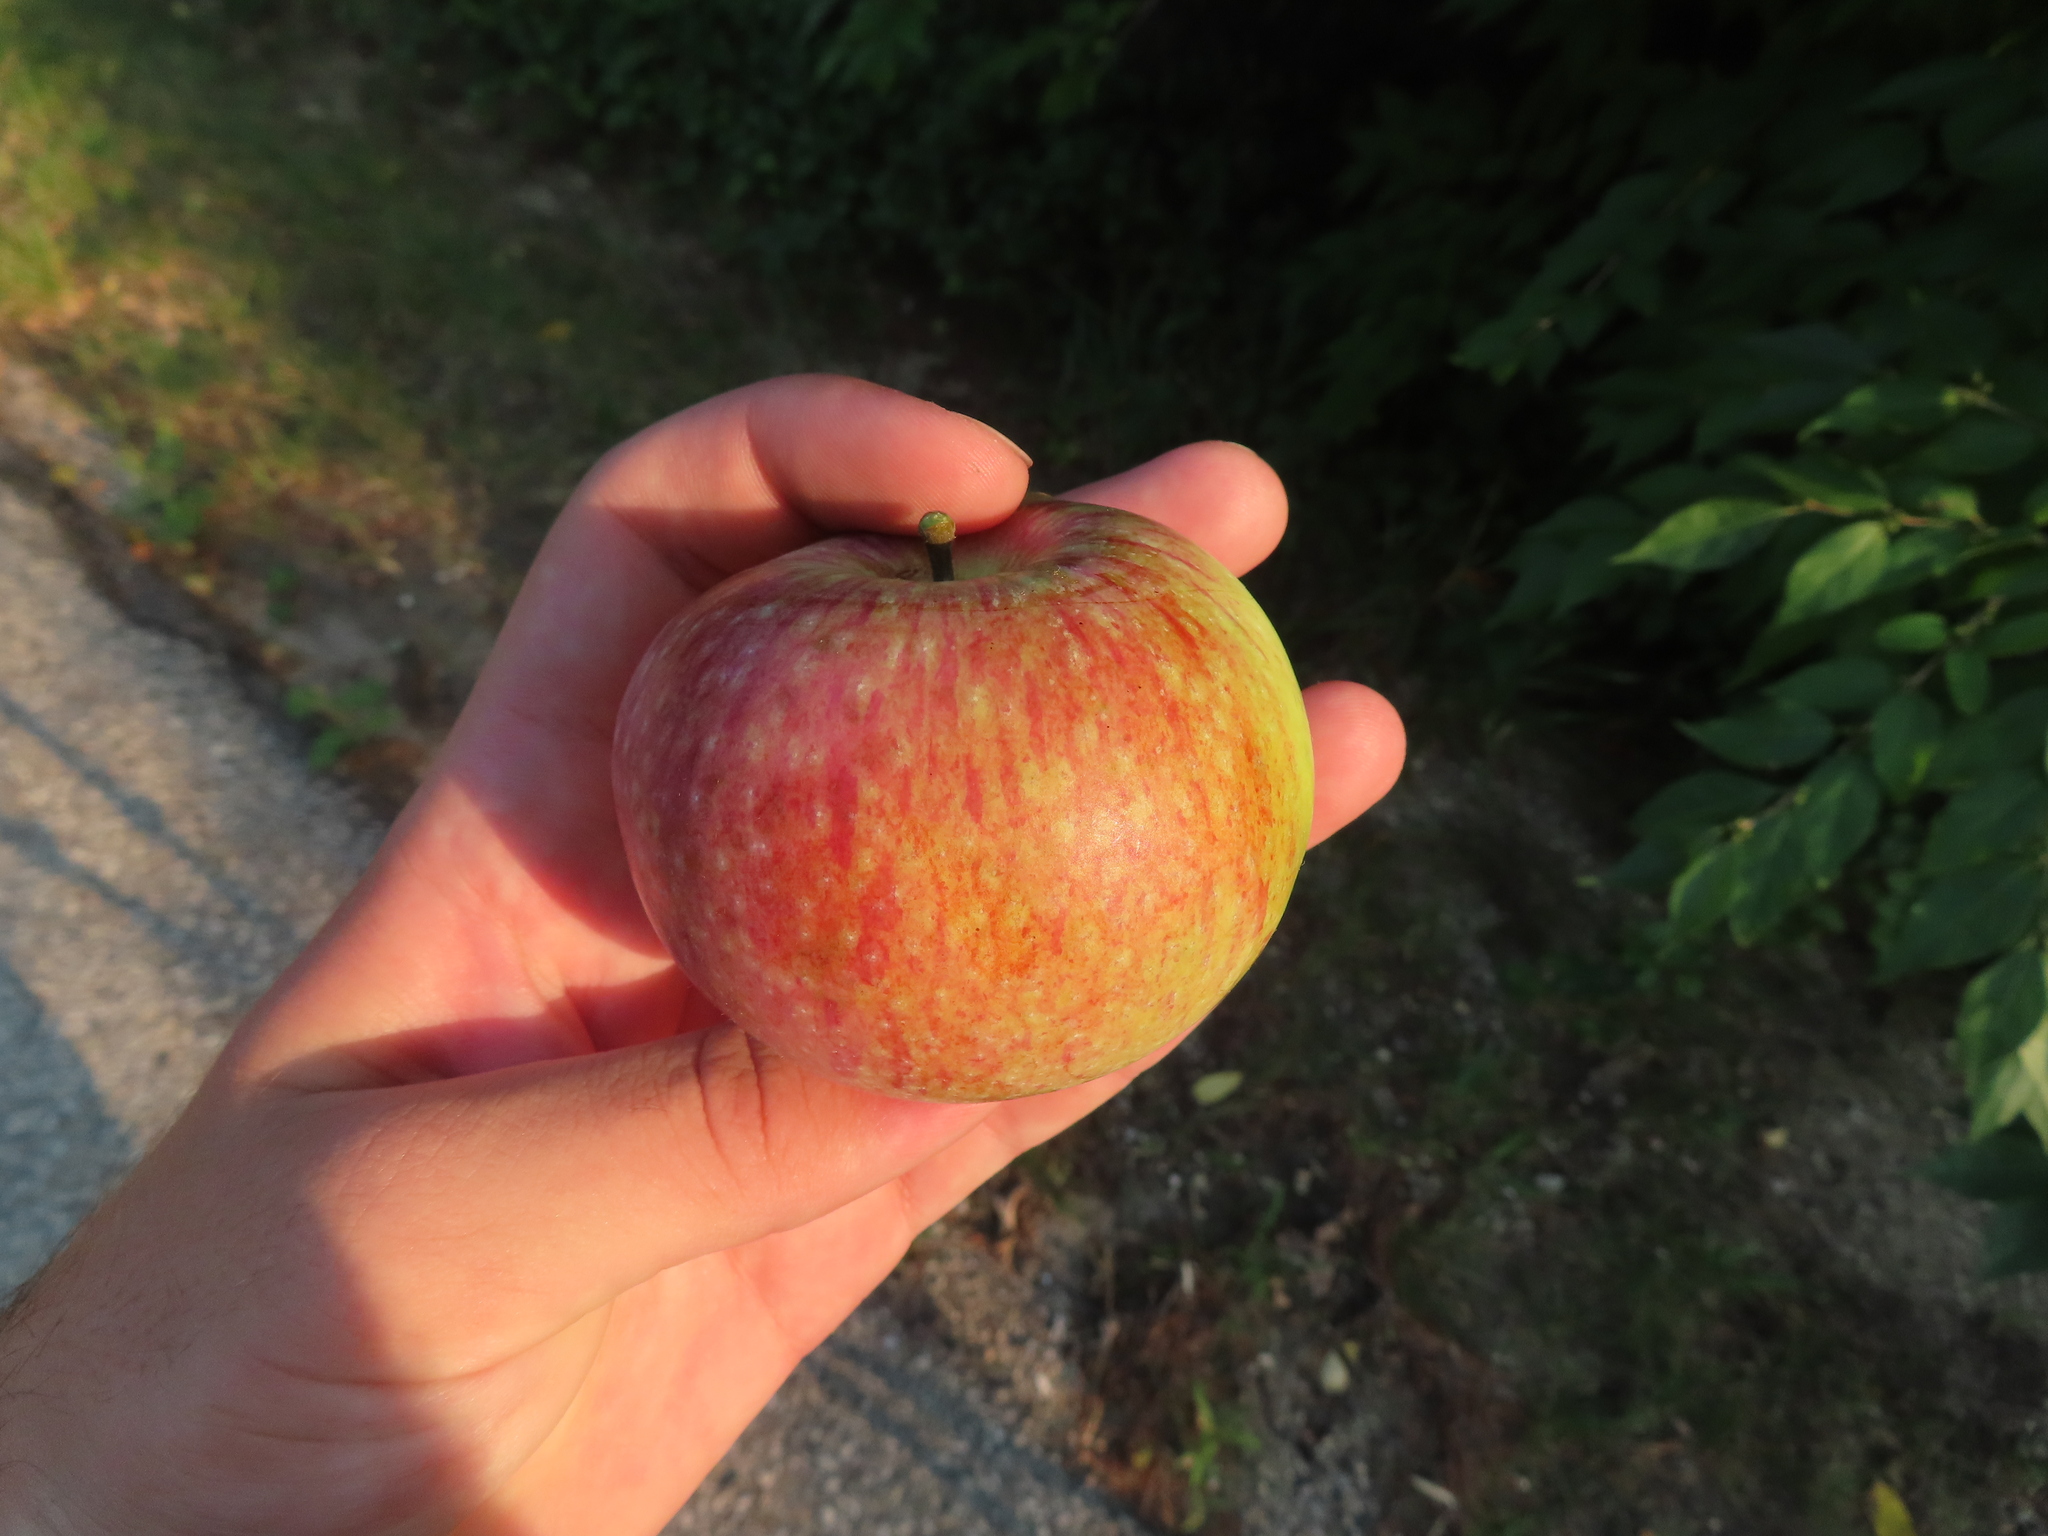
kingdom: Plantae
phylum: Tracheophyta
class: Magnoliopsida
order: Rosales
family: Rosaceae
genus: Malus
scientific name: Malus domestica
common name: Apple
